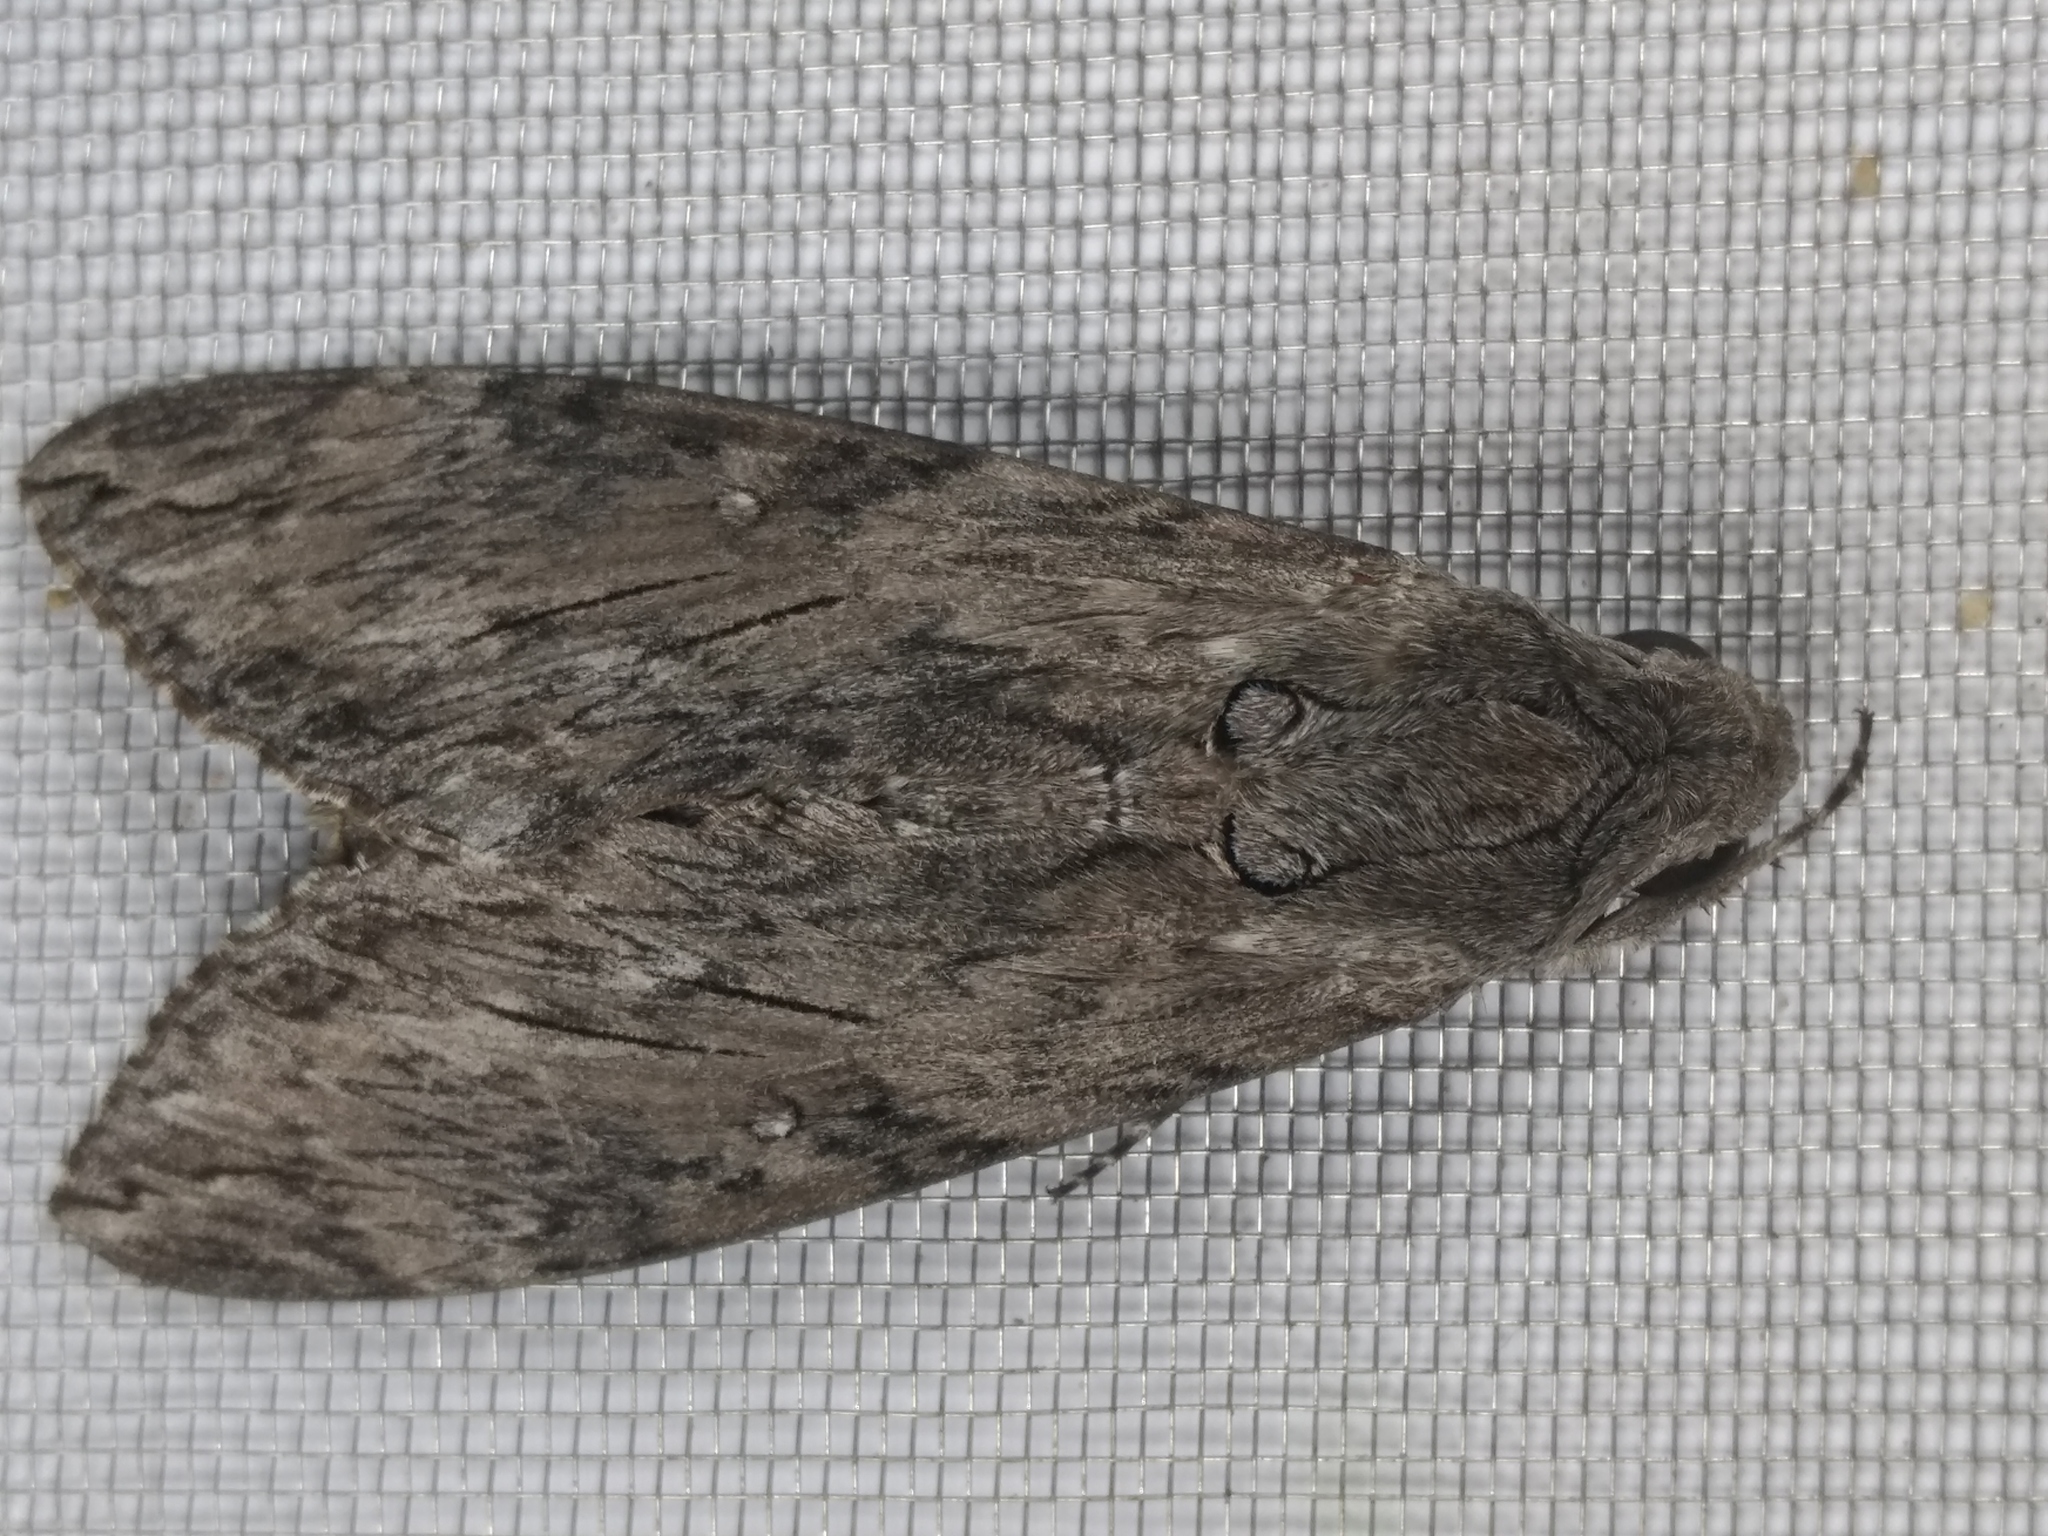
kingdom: Animalia
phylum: Arthropoda
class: Insecta
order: Lepidoptera
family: Sphingidae
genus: Agrius
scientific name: Agrius convolvuli
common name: Convolvulus hawkmoth
